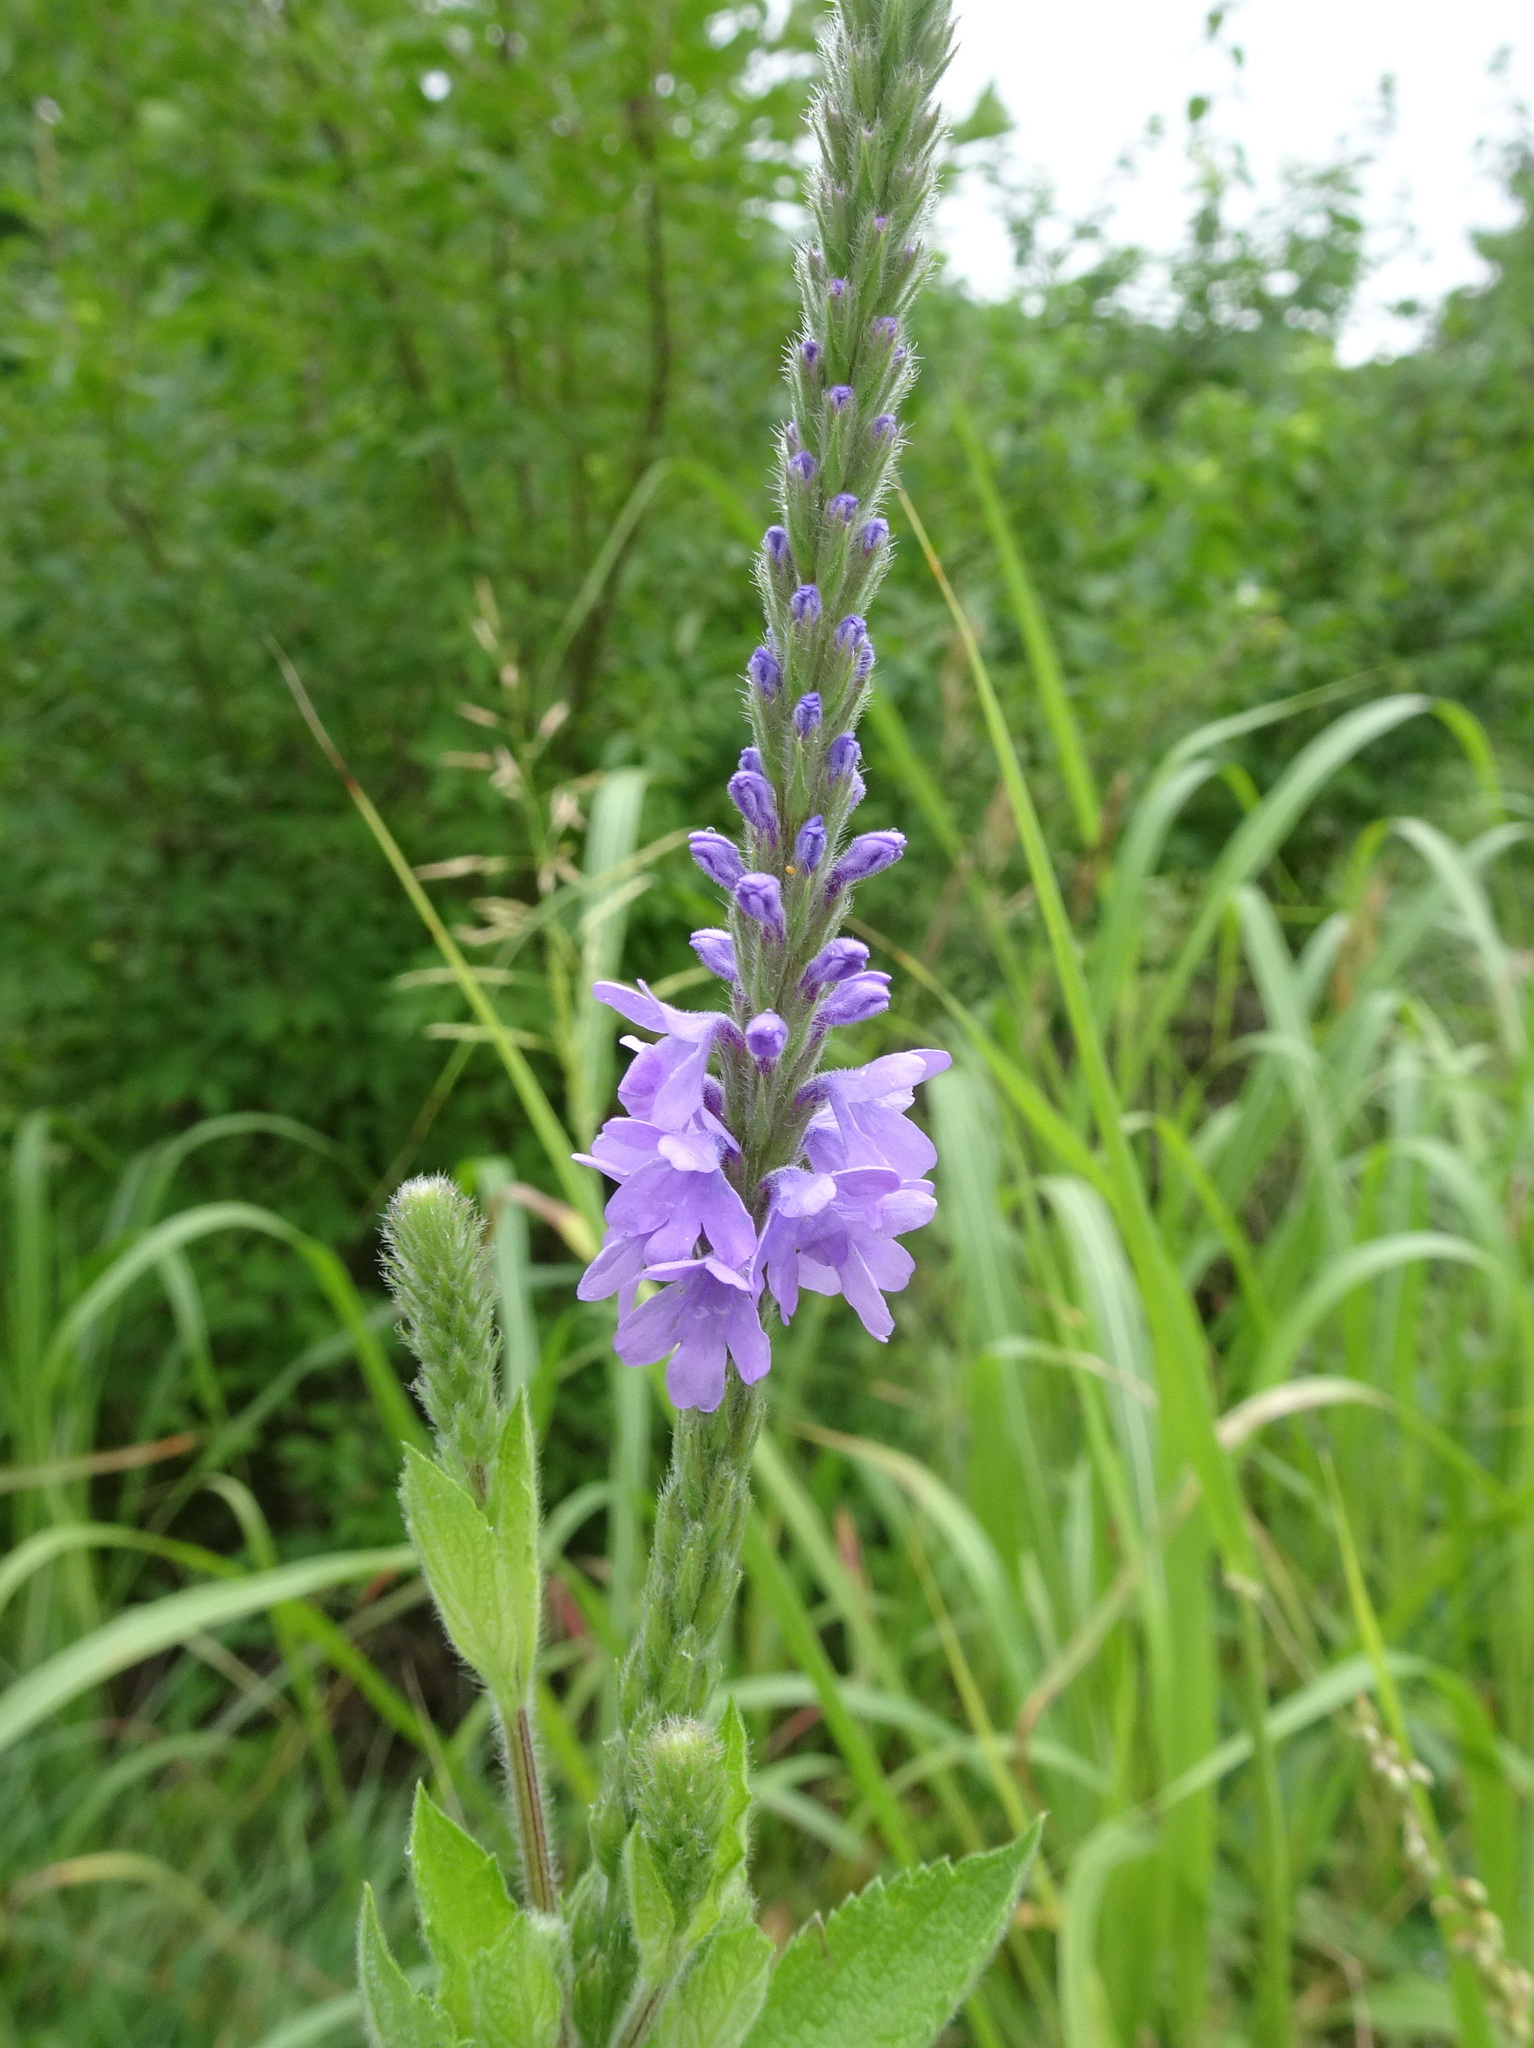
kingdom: Plantae
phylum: Tracheophyta
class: Magnoliopsida
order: Lamiales
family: Verbenaceae
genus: Verbena
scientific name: Verbena stricta
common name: Hoary vervain
